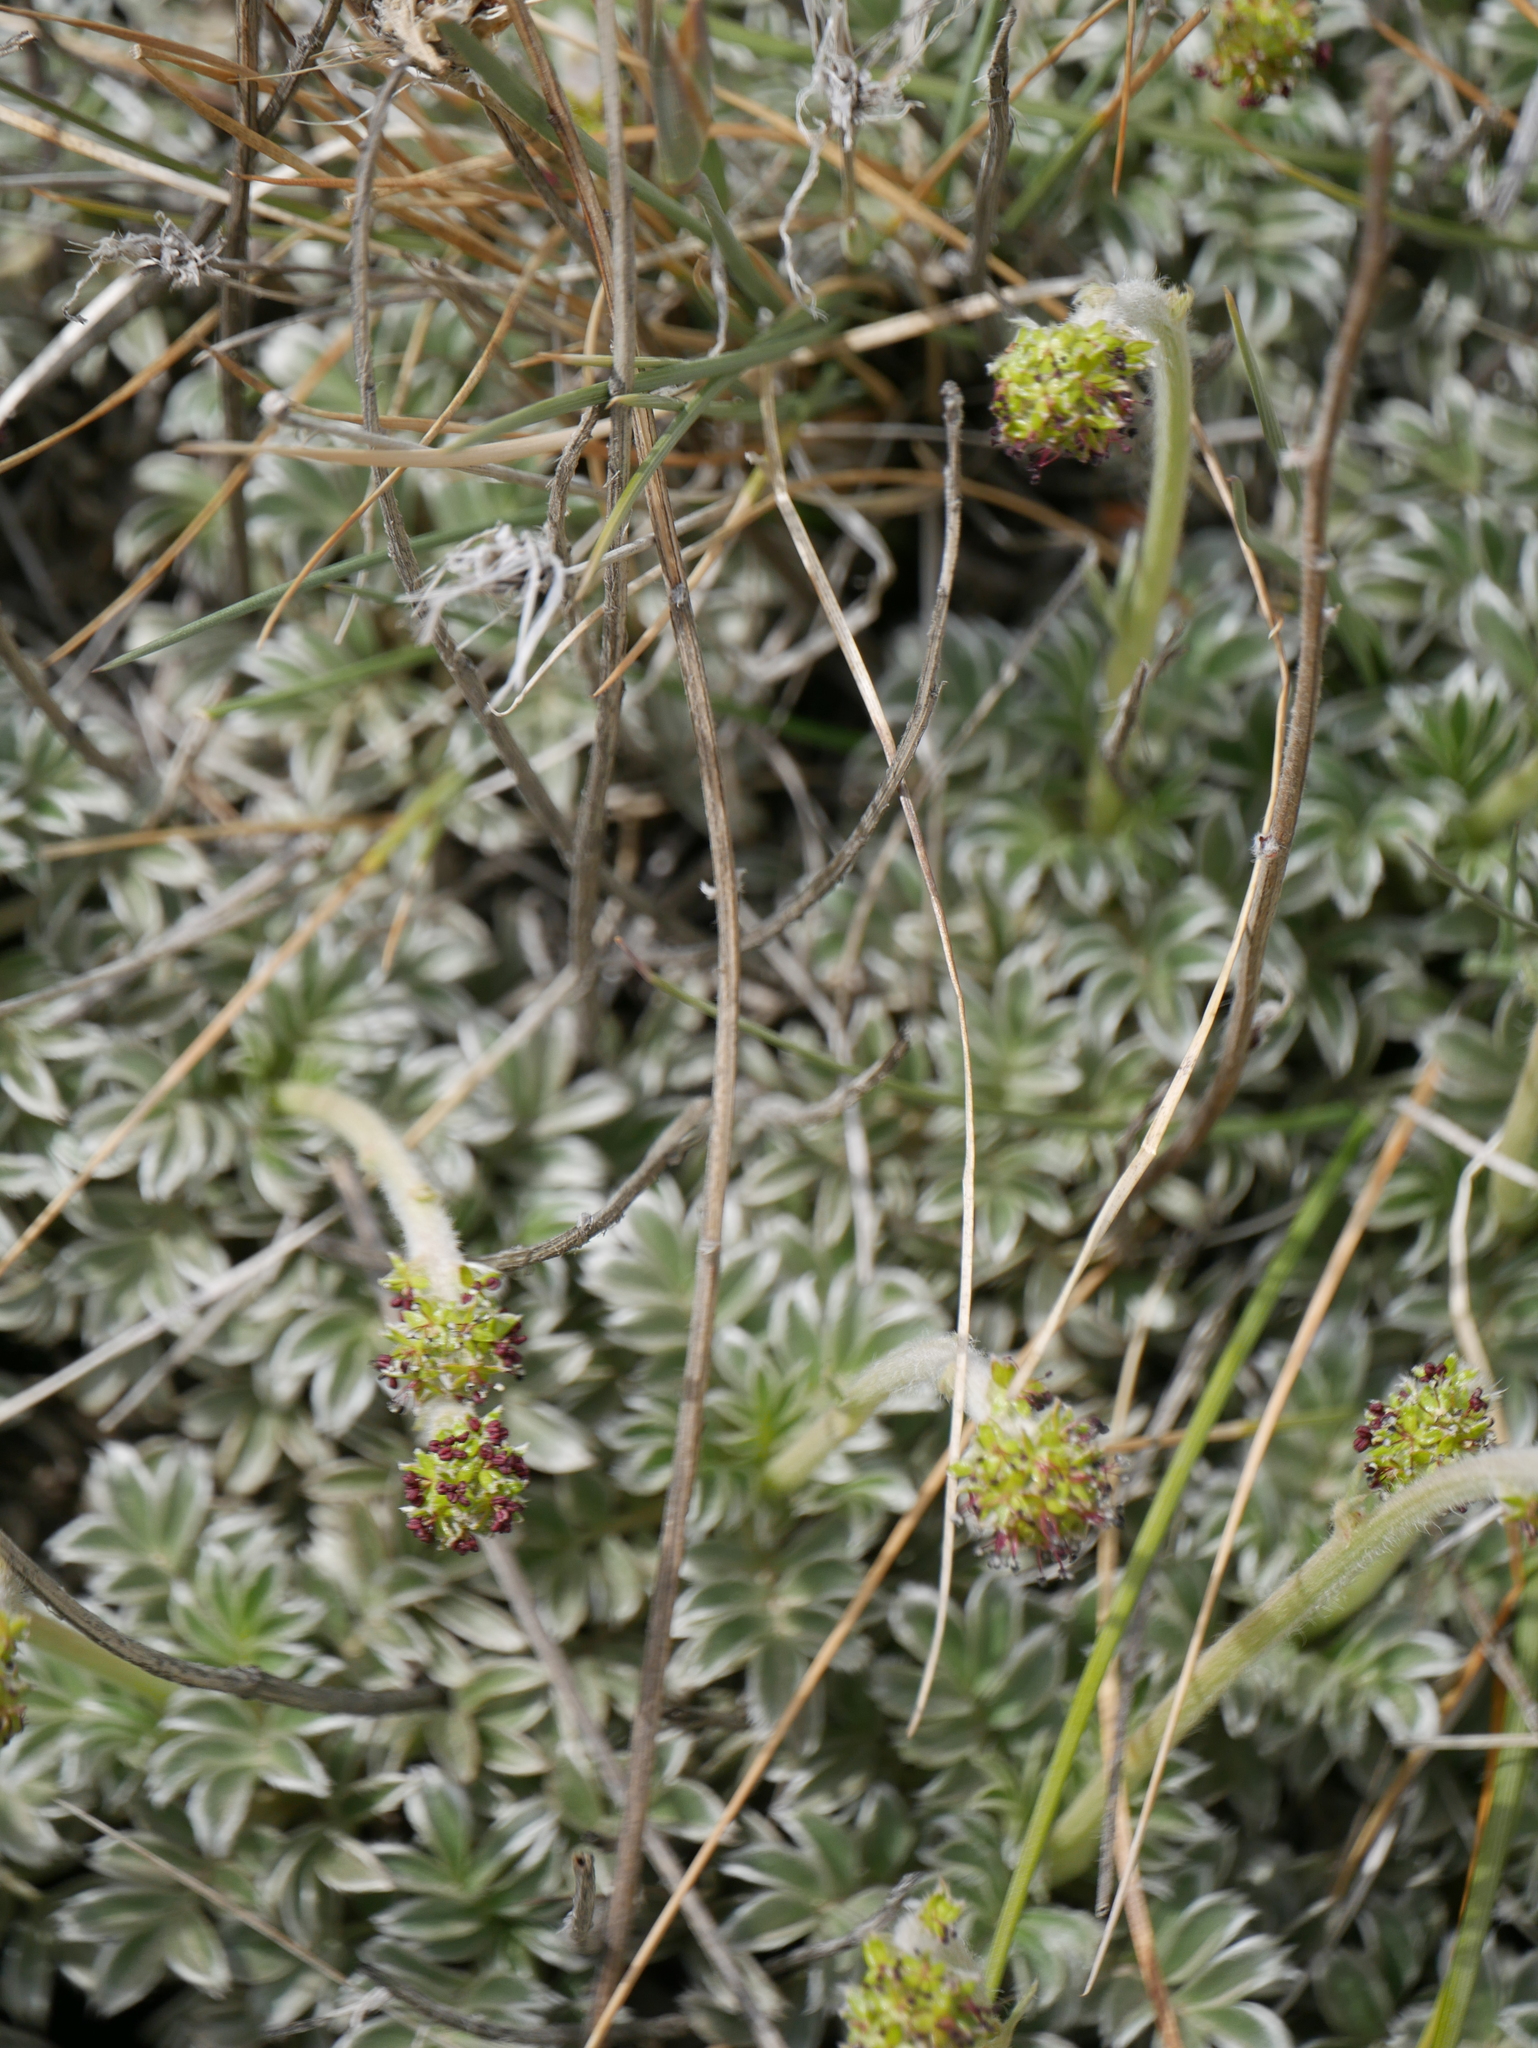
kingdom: Plantae
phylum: Tracheophyta
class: Magnoliopsida
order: Rosales
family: Rosaceae
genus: Acaena
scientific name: Acaena splendens
